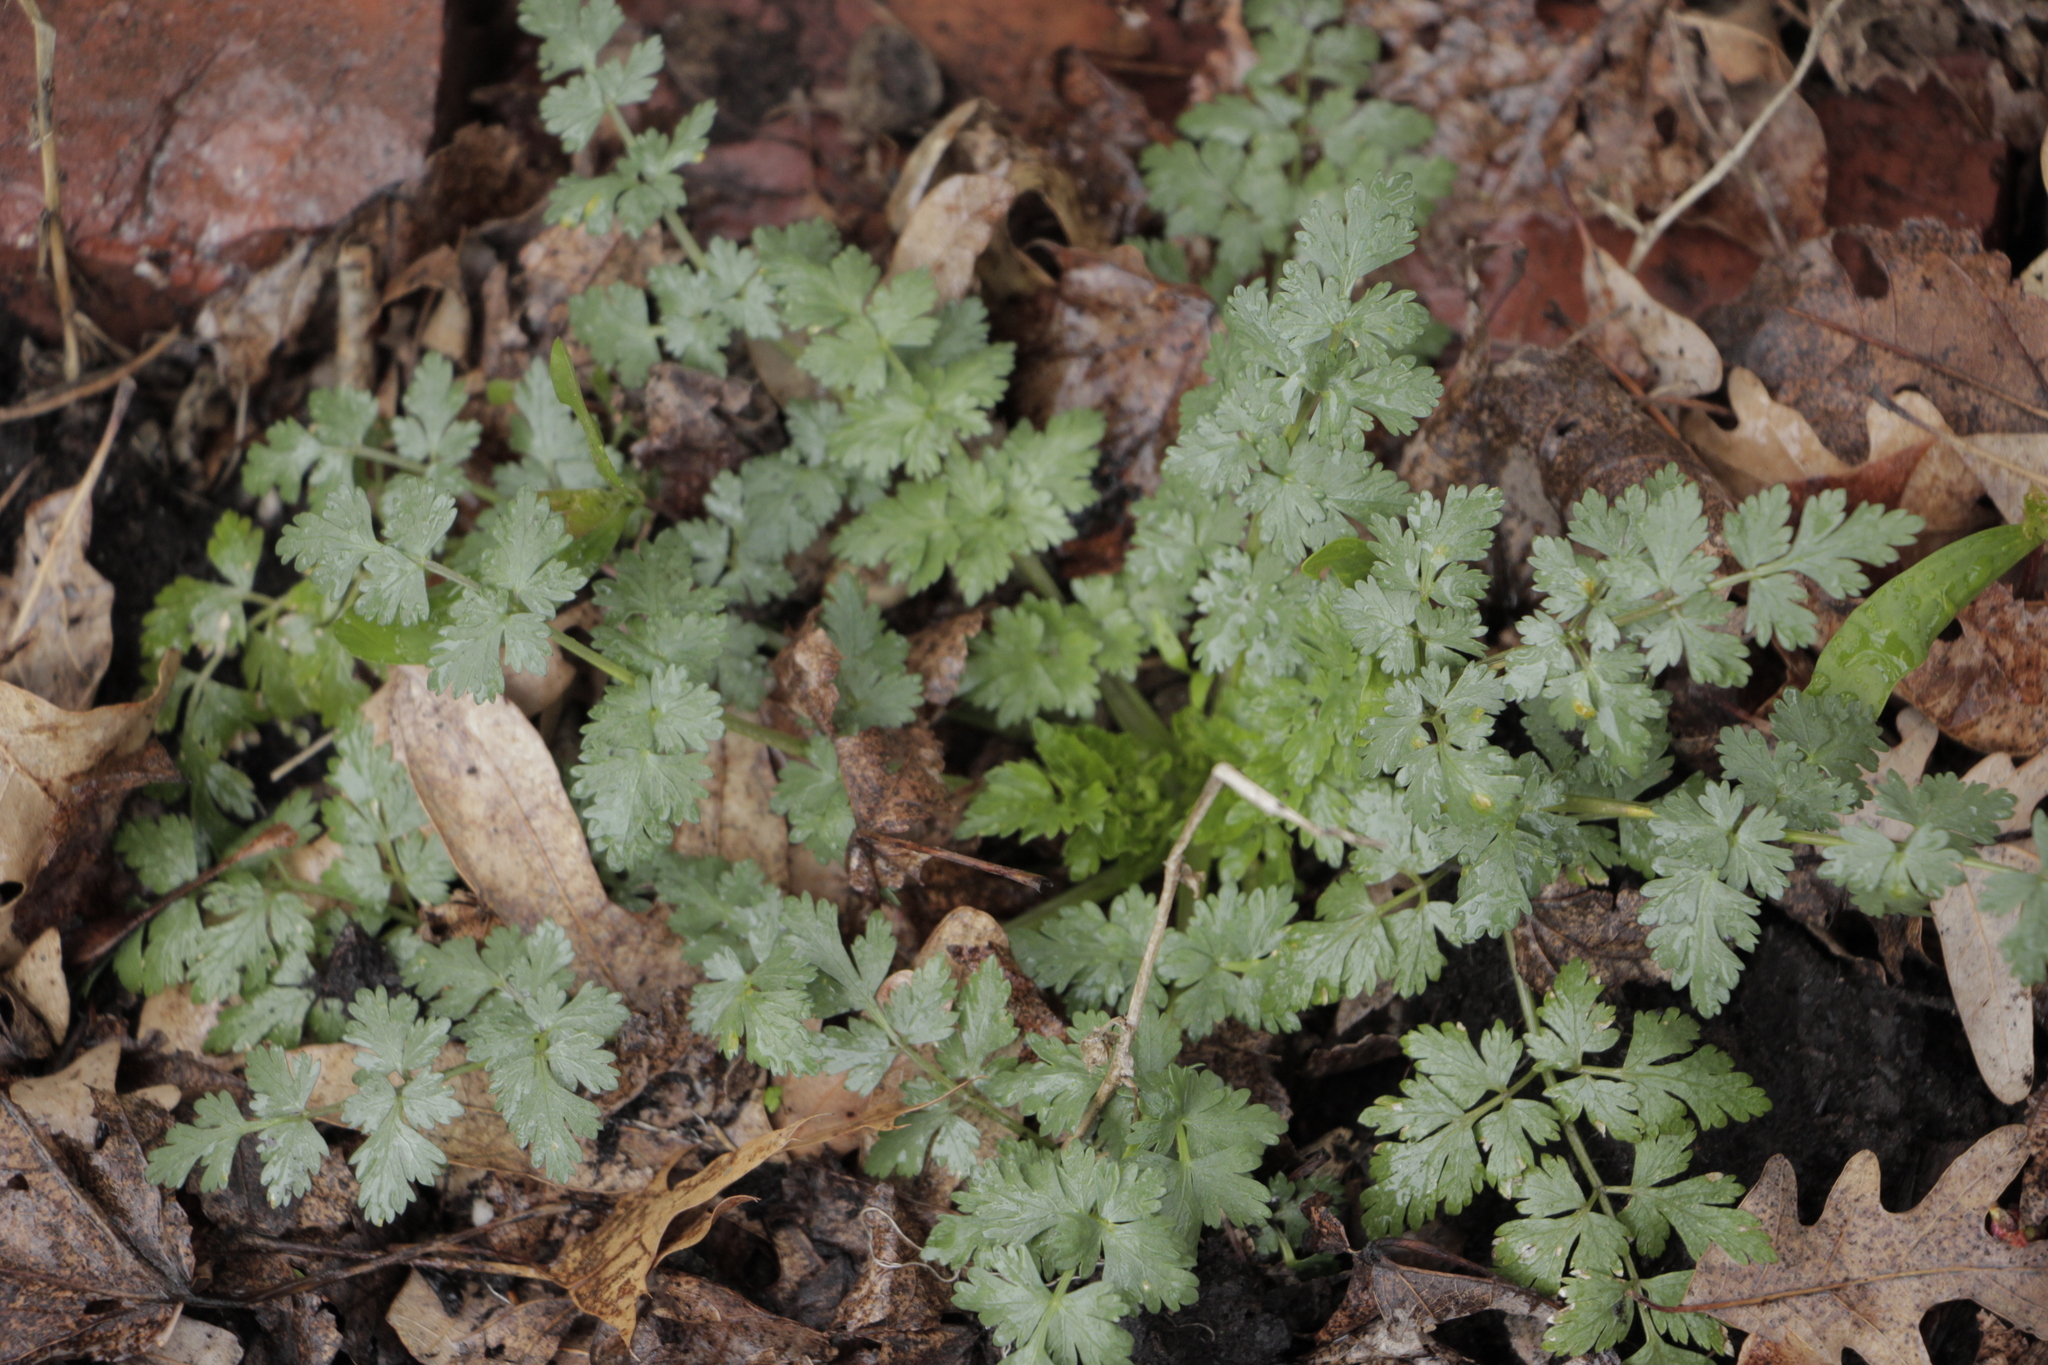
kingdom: Plantae
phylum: Tracheophyta
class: Magnoliopsida
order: Asterales
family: Asteraceae
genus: Artemisia
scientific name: Artemisia vulgaris
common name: Mugwort
